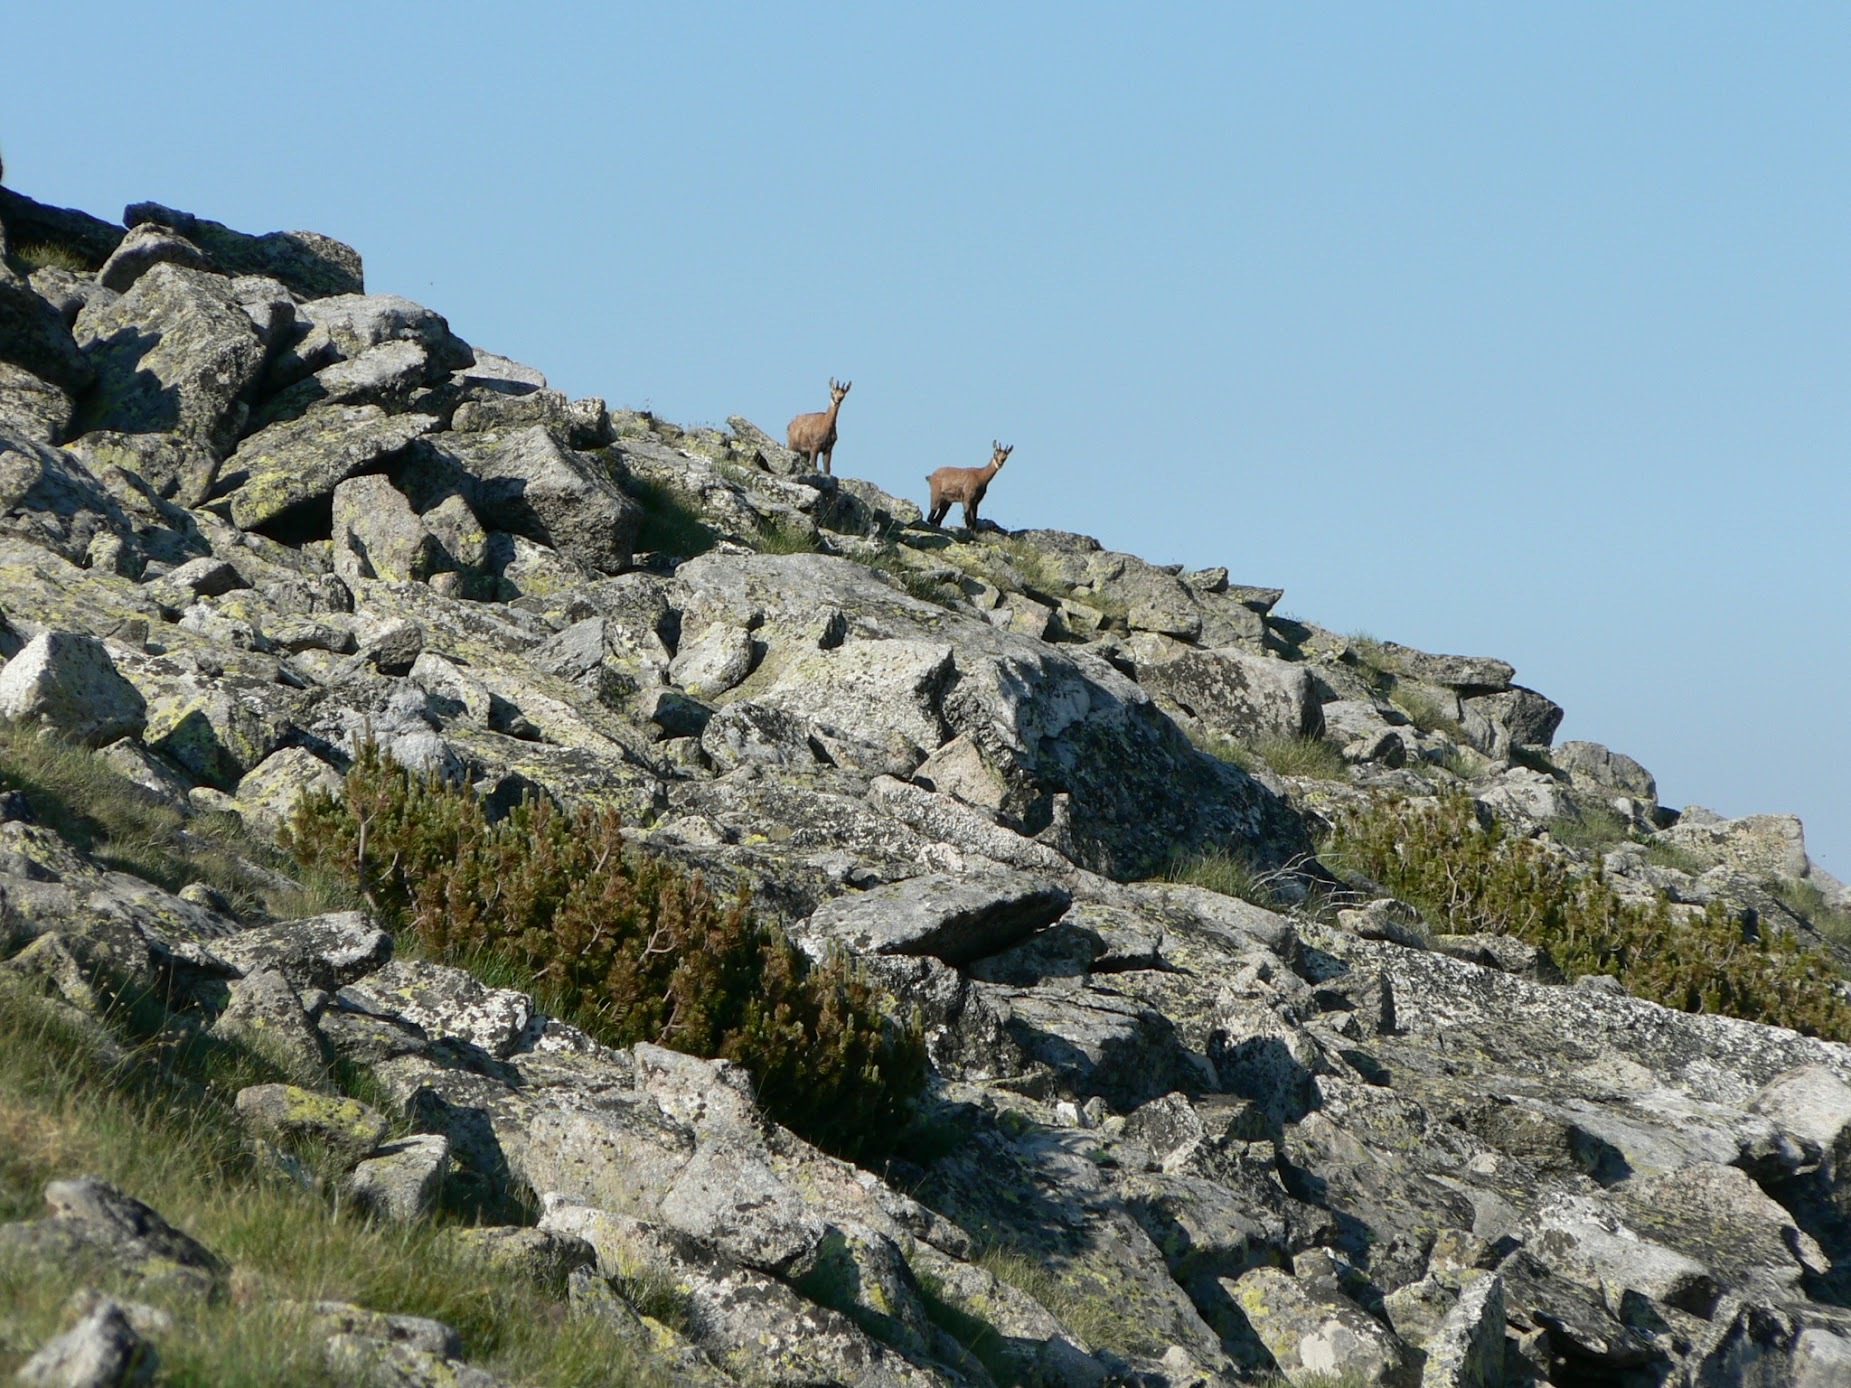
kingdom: Animalia
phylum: Chordata
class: Mammalia
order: Artiodactyla
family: Bovidae
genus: Rupicapra
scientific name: Rupicapra rupicapra
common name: Chamois
